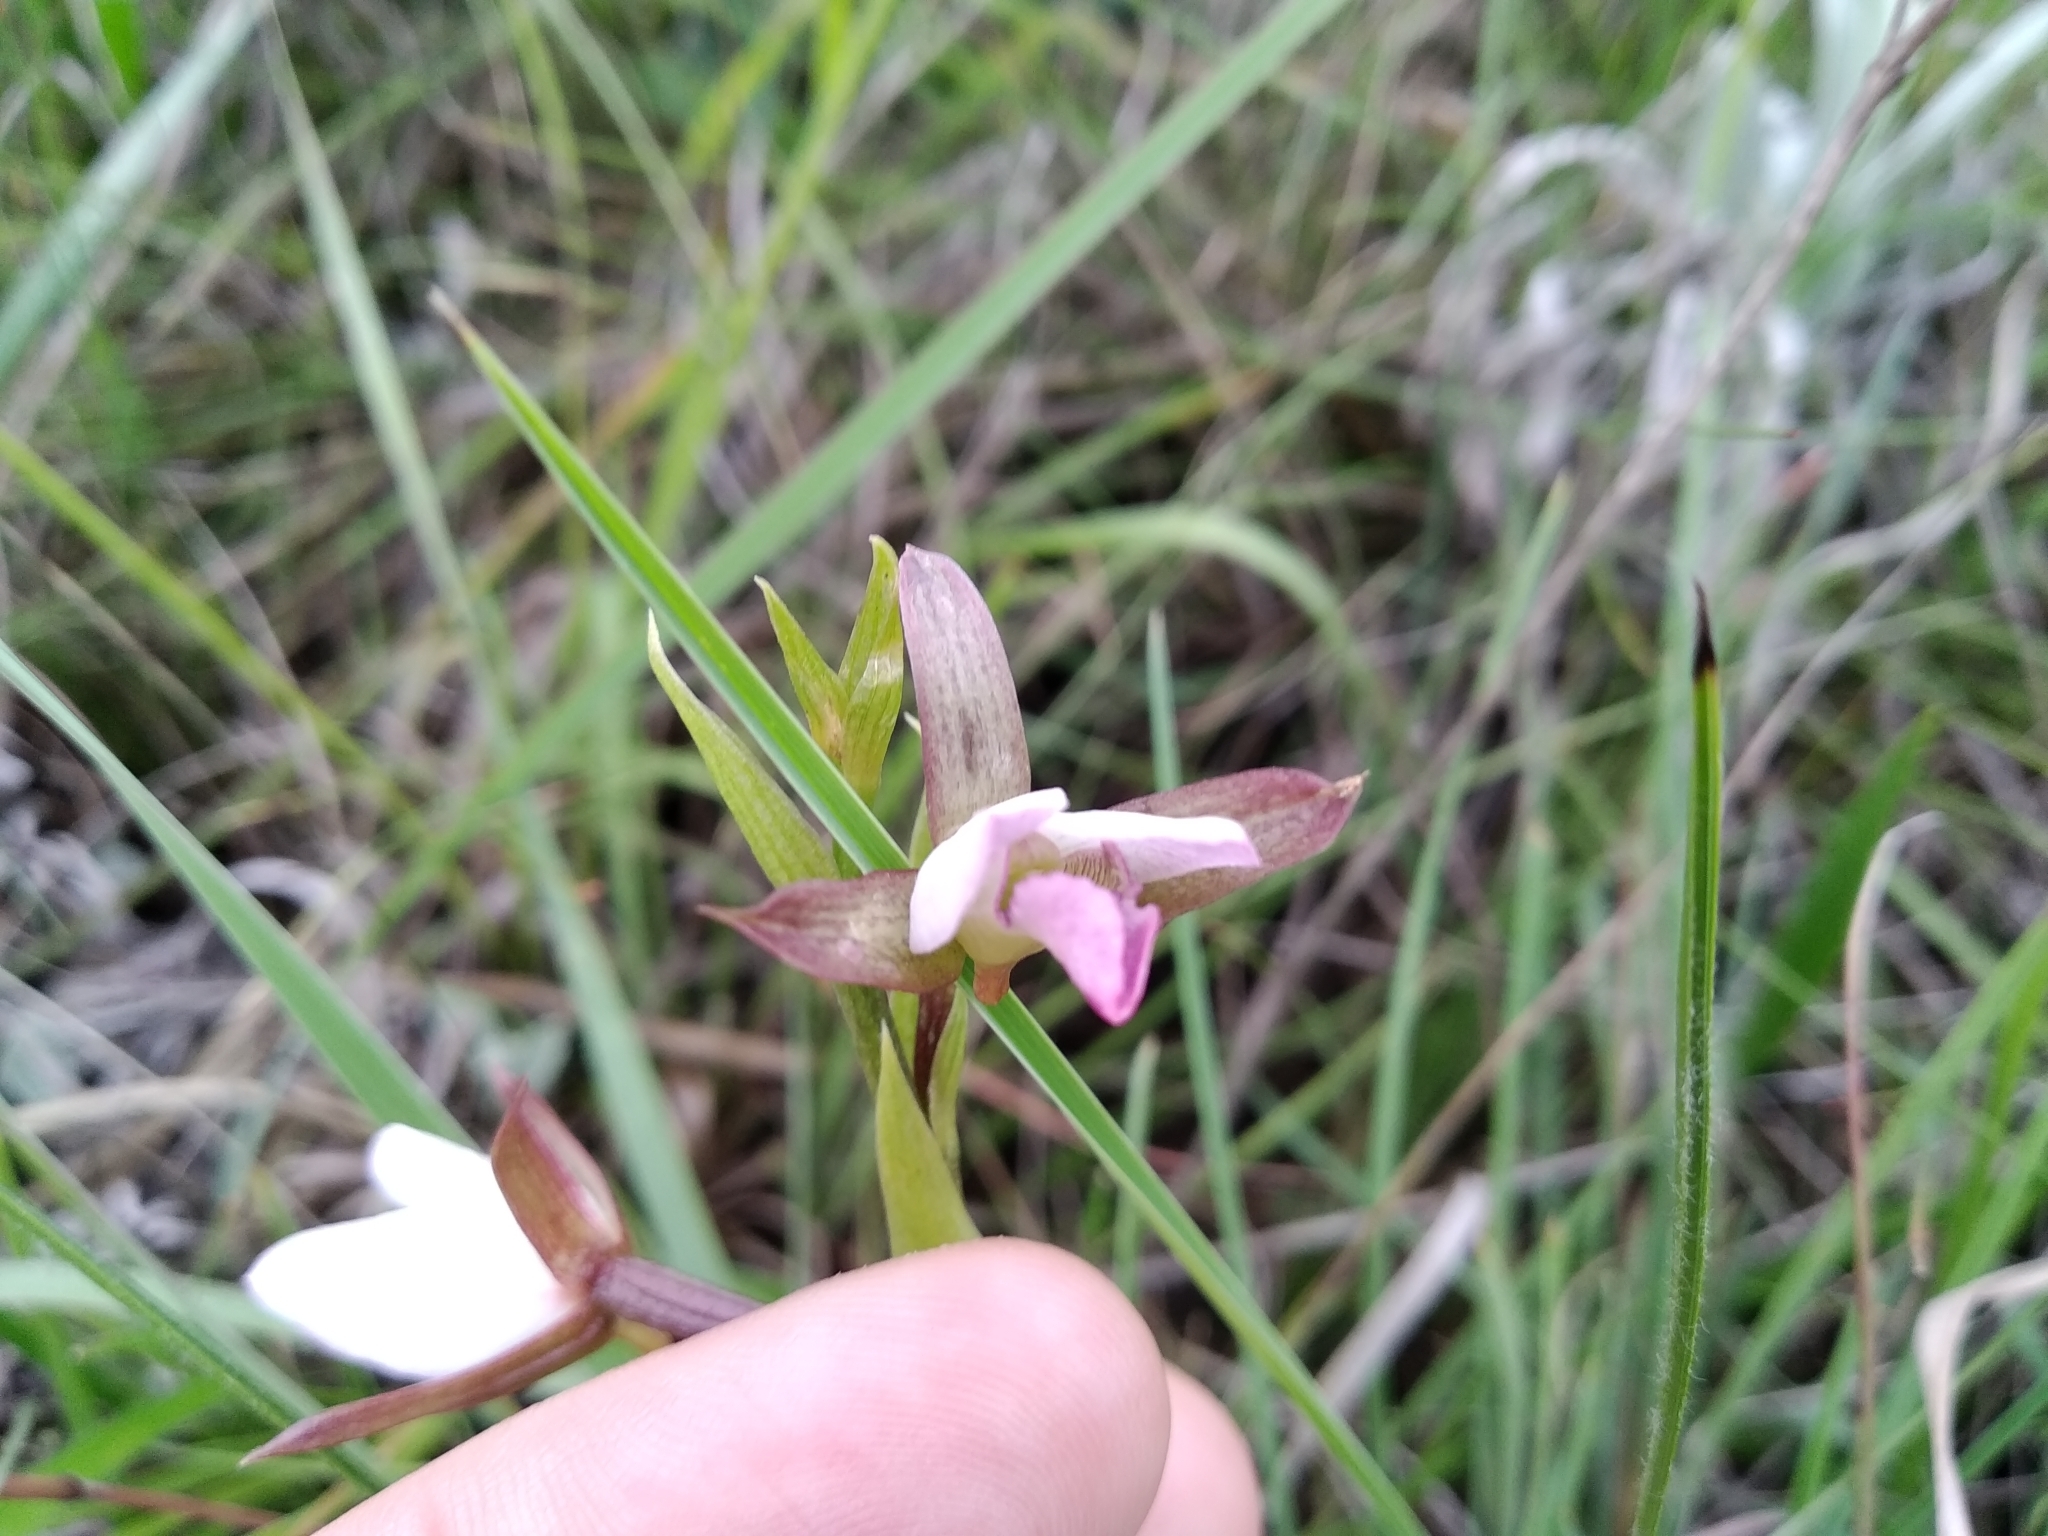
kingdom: Plantae
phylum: Tracheophyta
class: Liliopsida
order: Asparagales
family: Orchidaceae
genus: Eulophia
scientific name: Eulophia hians
